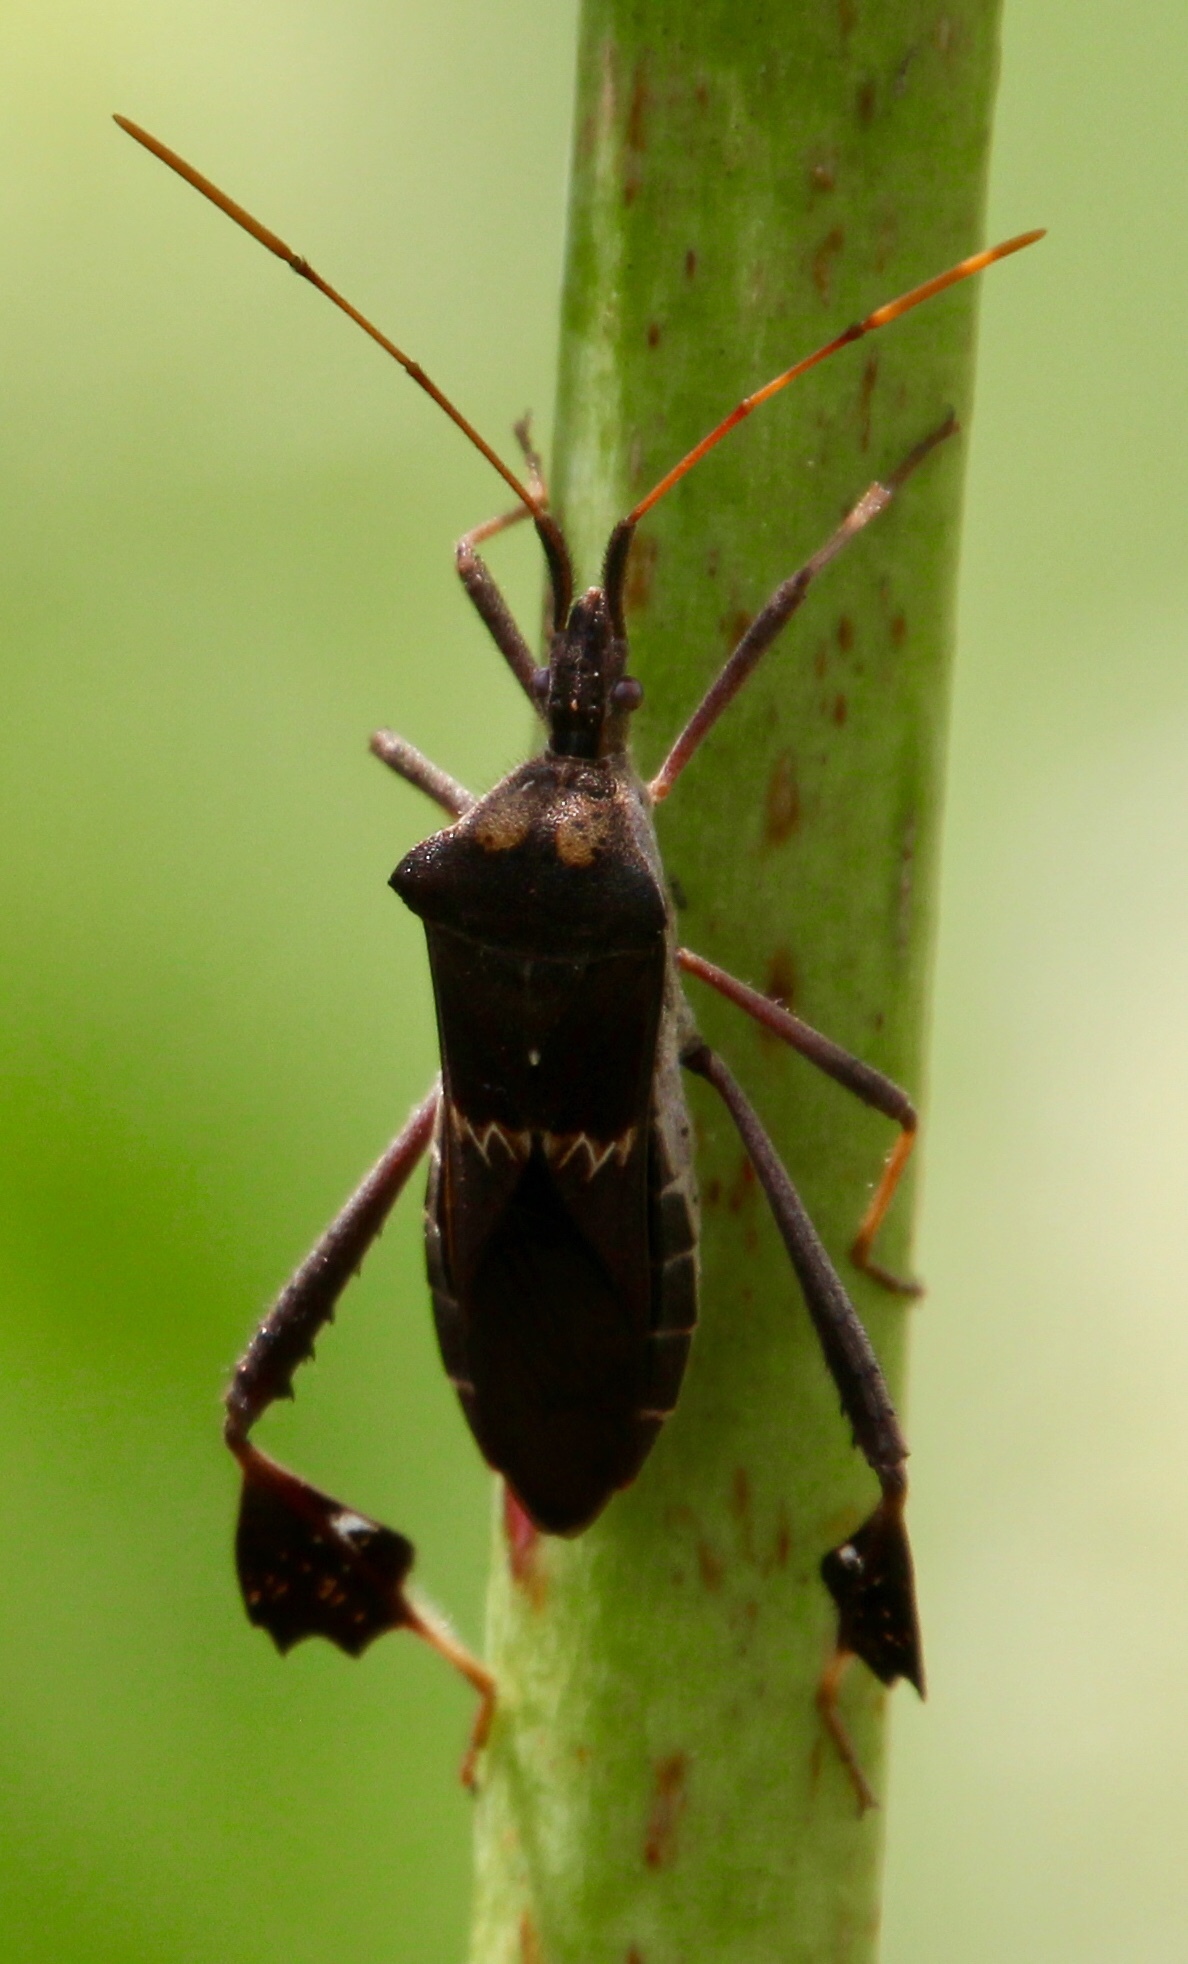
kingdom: Animalia
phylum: Arthropoda
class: Insecta
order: Hemiptera
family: Coreidae
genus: Leptoglossus
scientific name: Leptoglossus zonatus
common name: Large-legged bug
